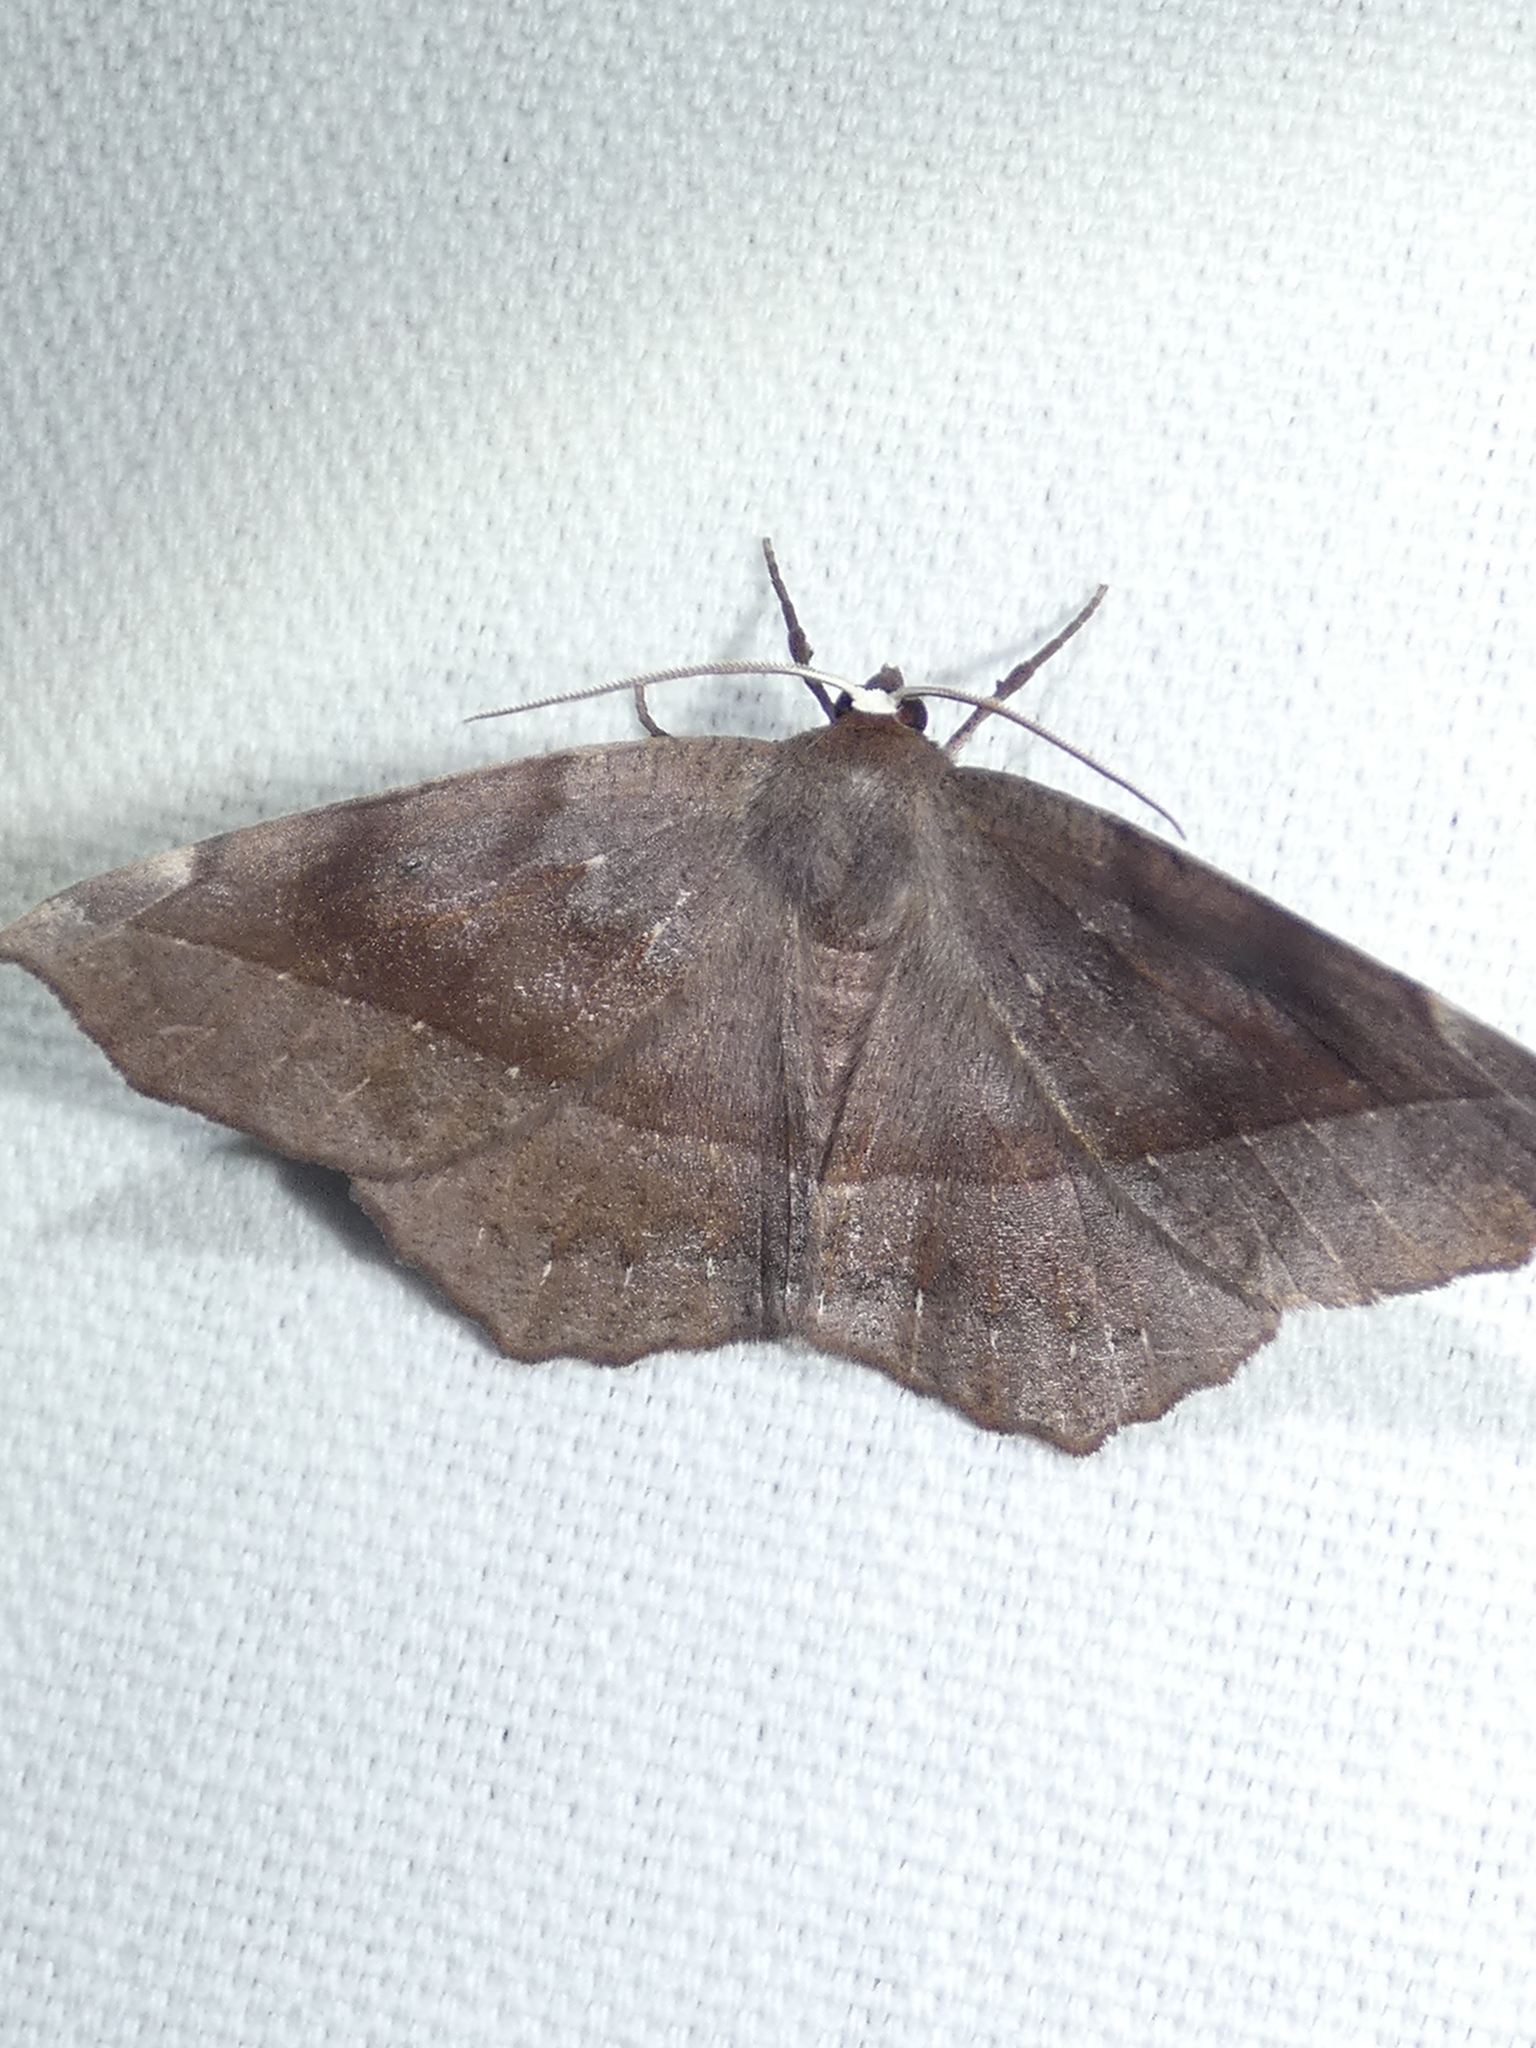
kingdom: Animalia
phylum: Arthropoda
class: Insecta
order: Lepidoptera
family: Geometridae
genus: Eutrapela
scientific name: Eutrapela clemataria
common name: Curved-toothed geometer
